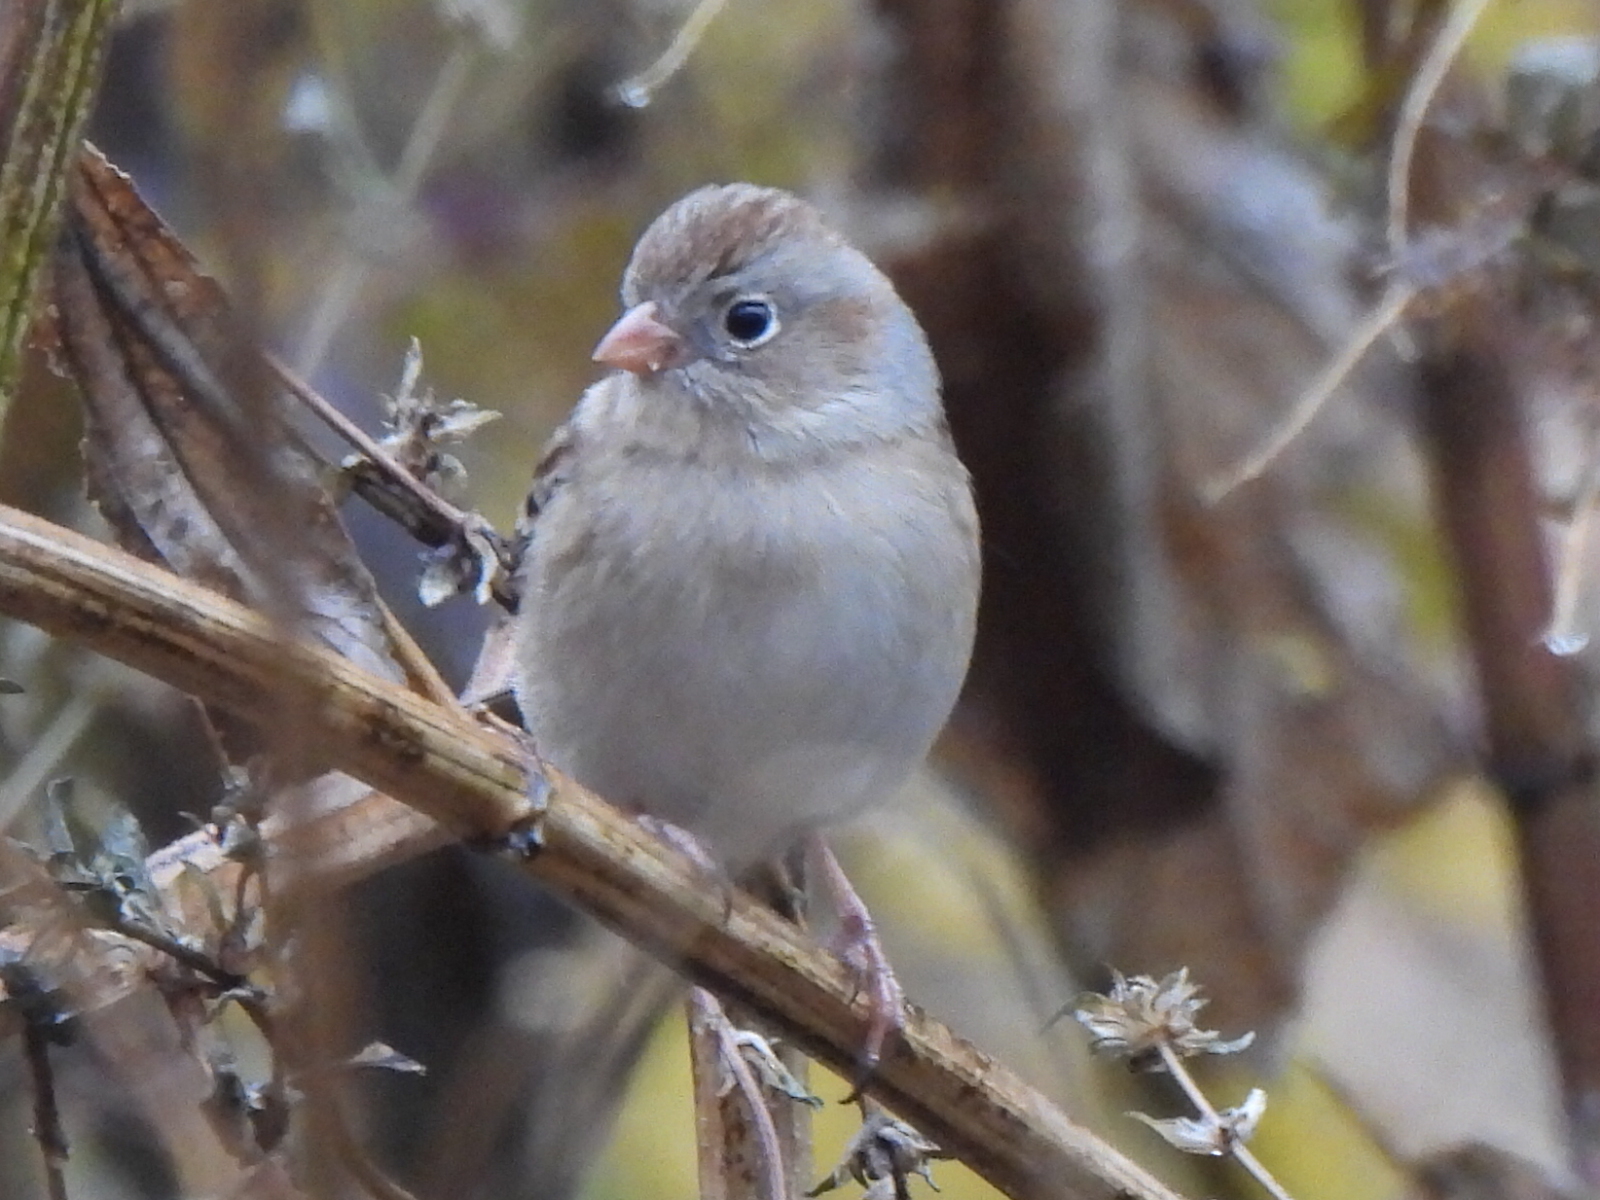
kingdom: Animalia
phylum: Chordata
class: Aves
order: Passeriformes
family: Passerellidae
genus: Spizella
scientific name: Spizella pusilla
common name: Field sparrow
